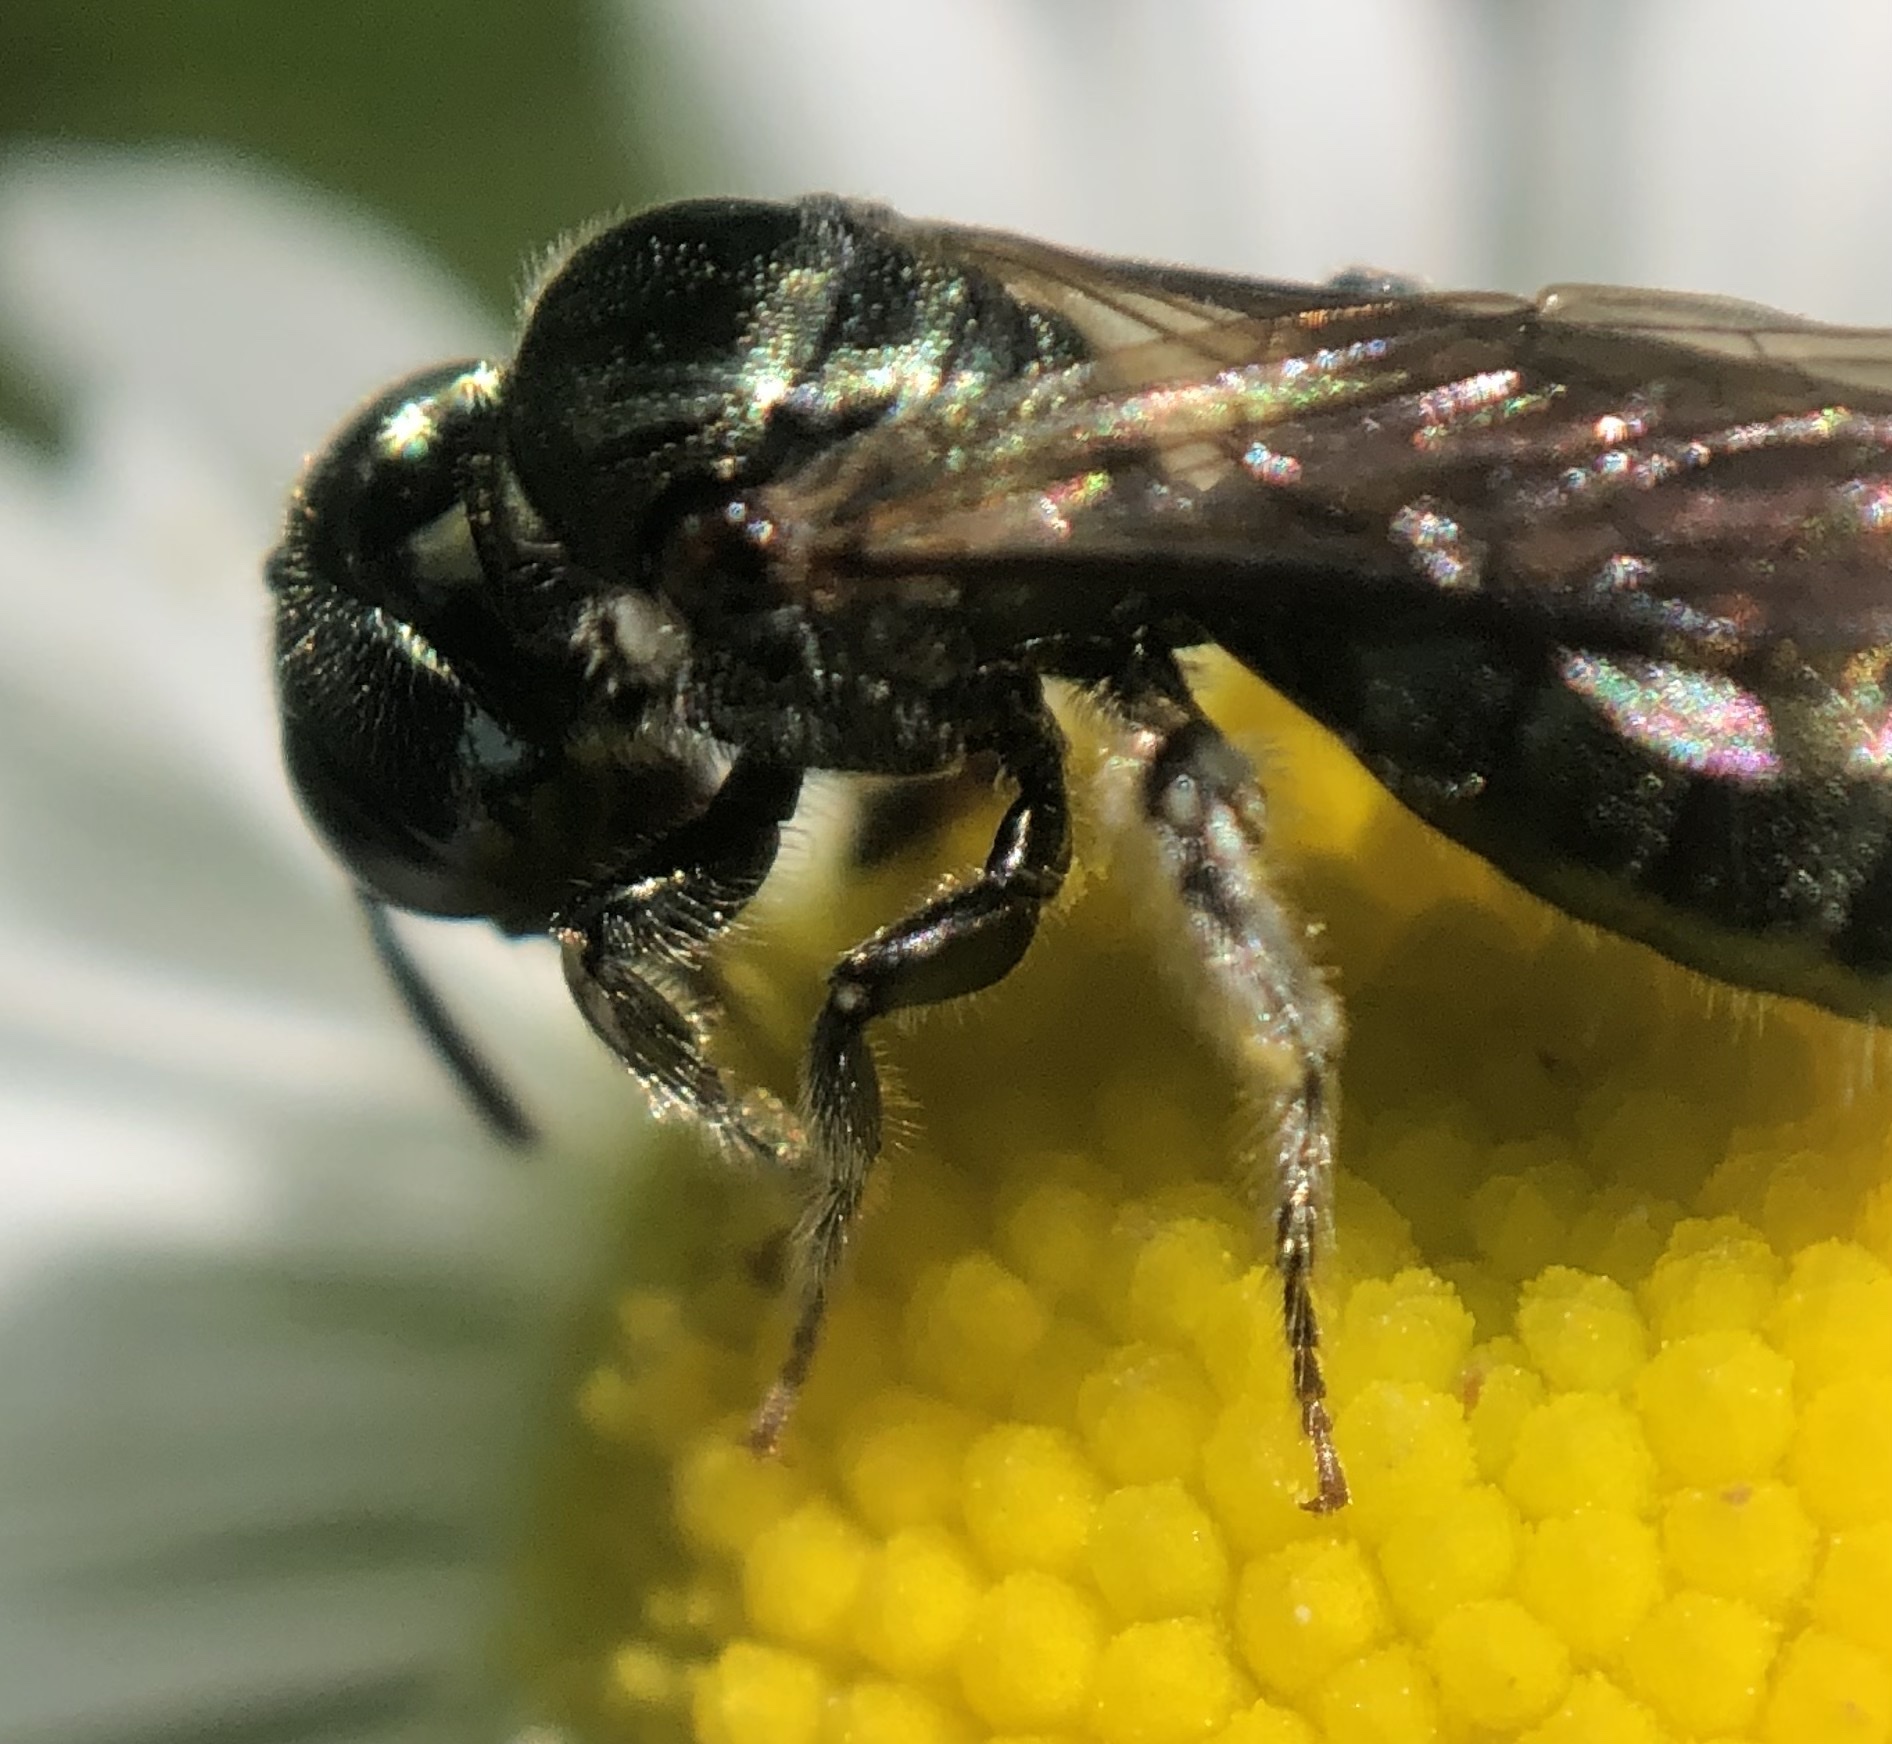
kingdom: Animalia
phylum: Arthropoda
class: Insecta
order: Hymenoptera
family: Apidae
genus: Ceratina
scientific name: Ceratina strenua
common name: Nimble carpenter bee
